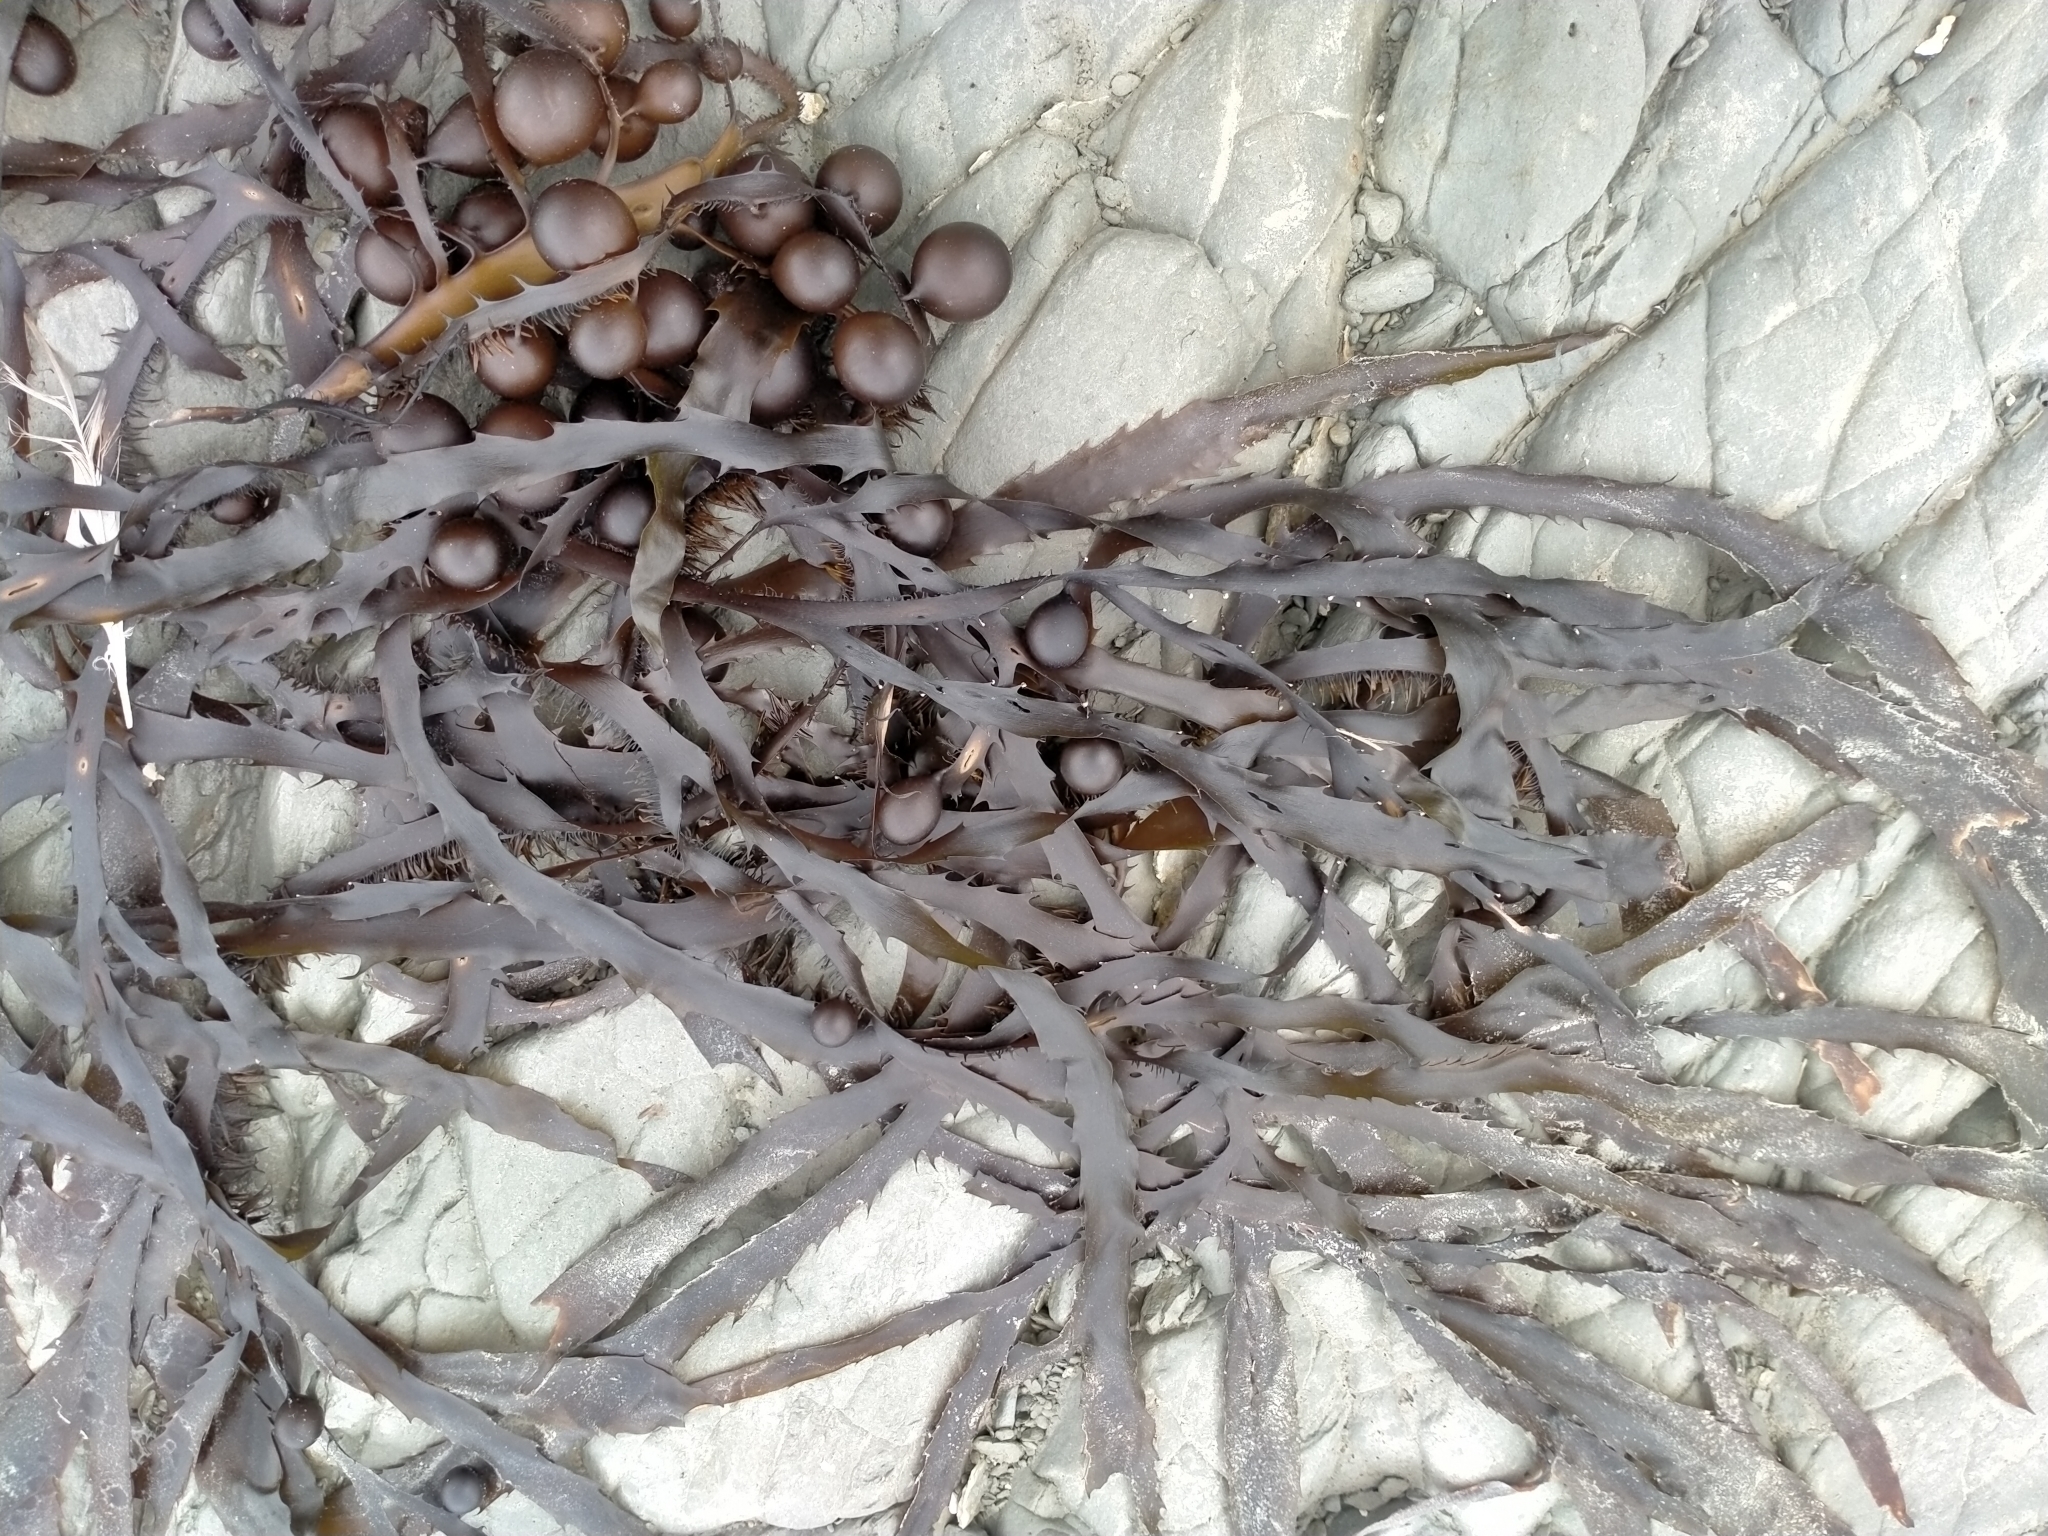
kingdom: Chromista
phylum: Ochrophyta
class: Phaeophyceae
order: Fucales
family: Seirococcaceae
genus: Marginariella
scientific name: Marginariella urvilliana
